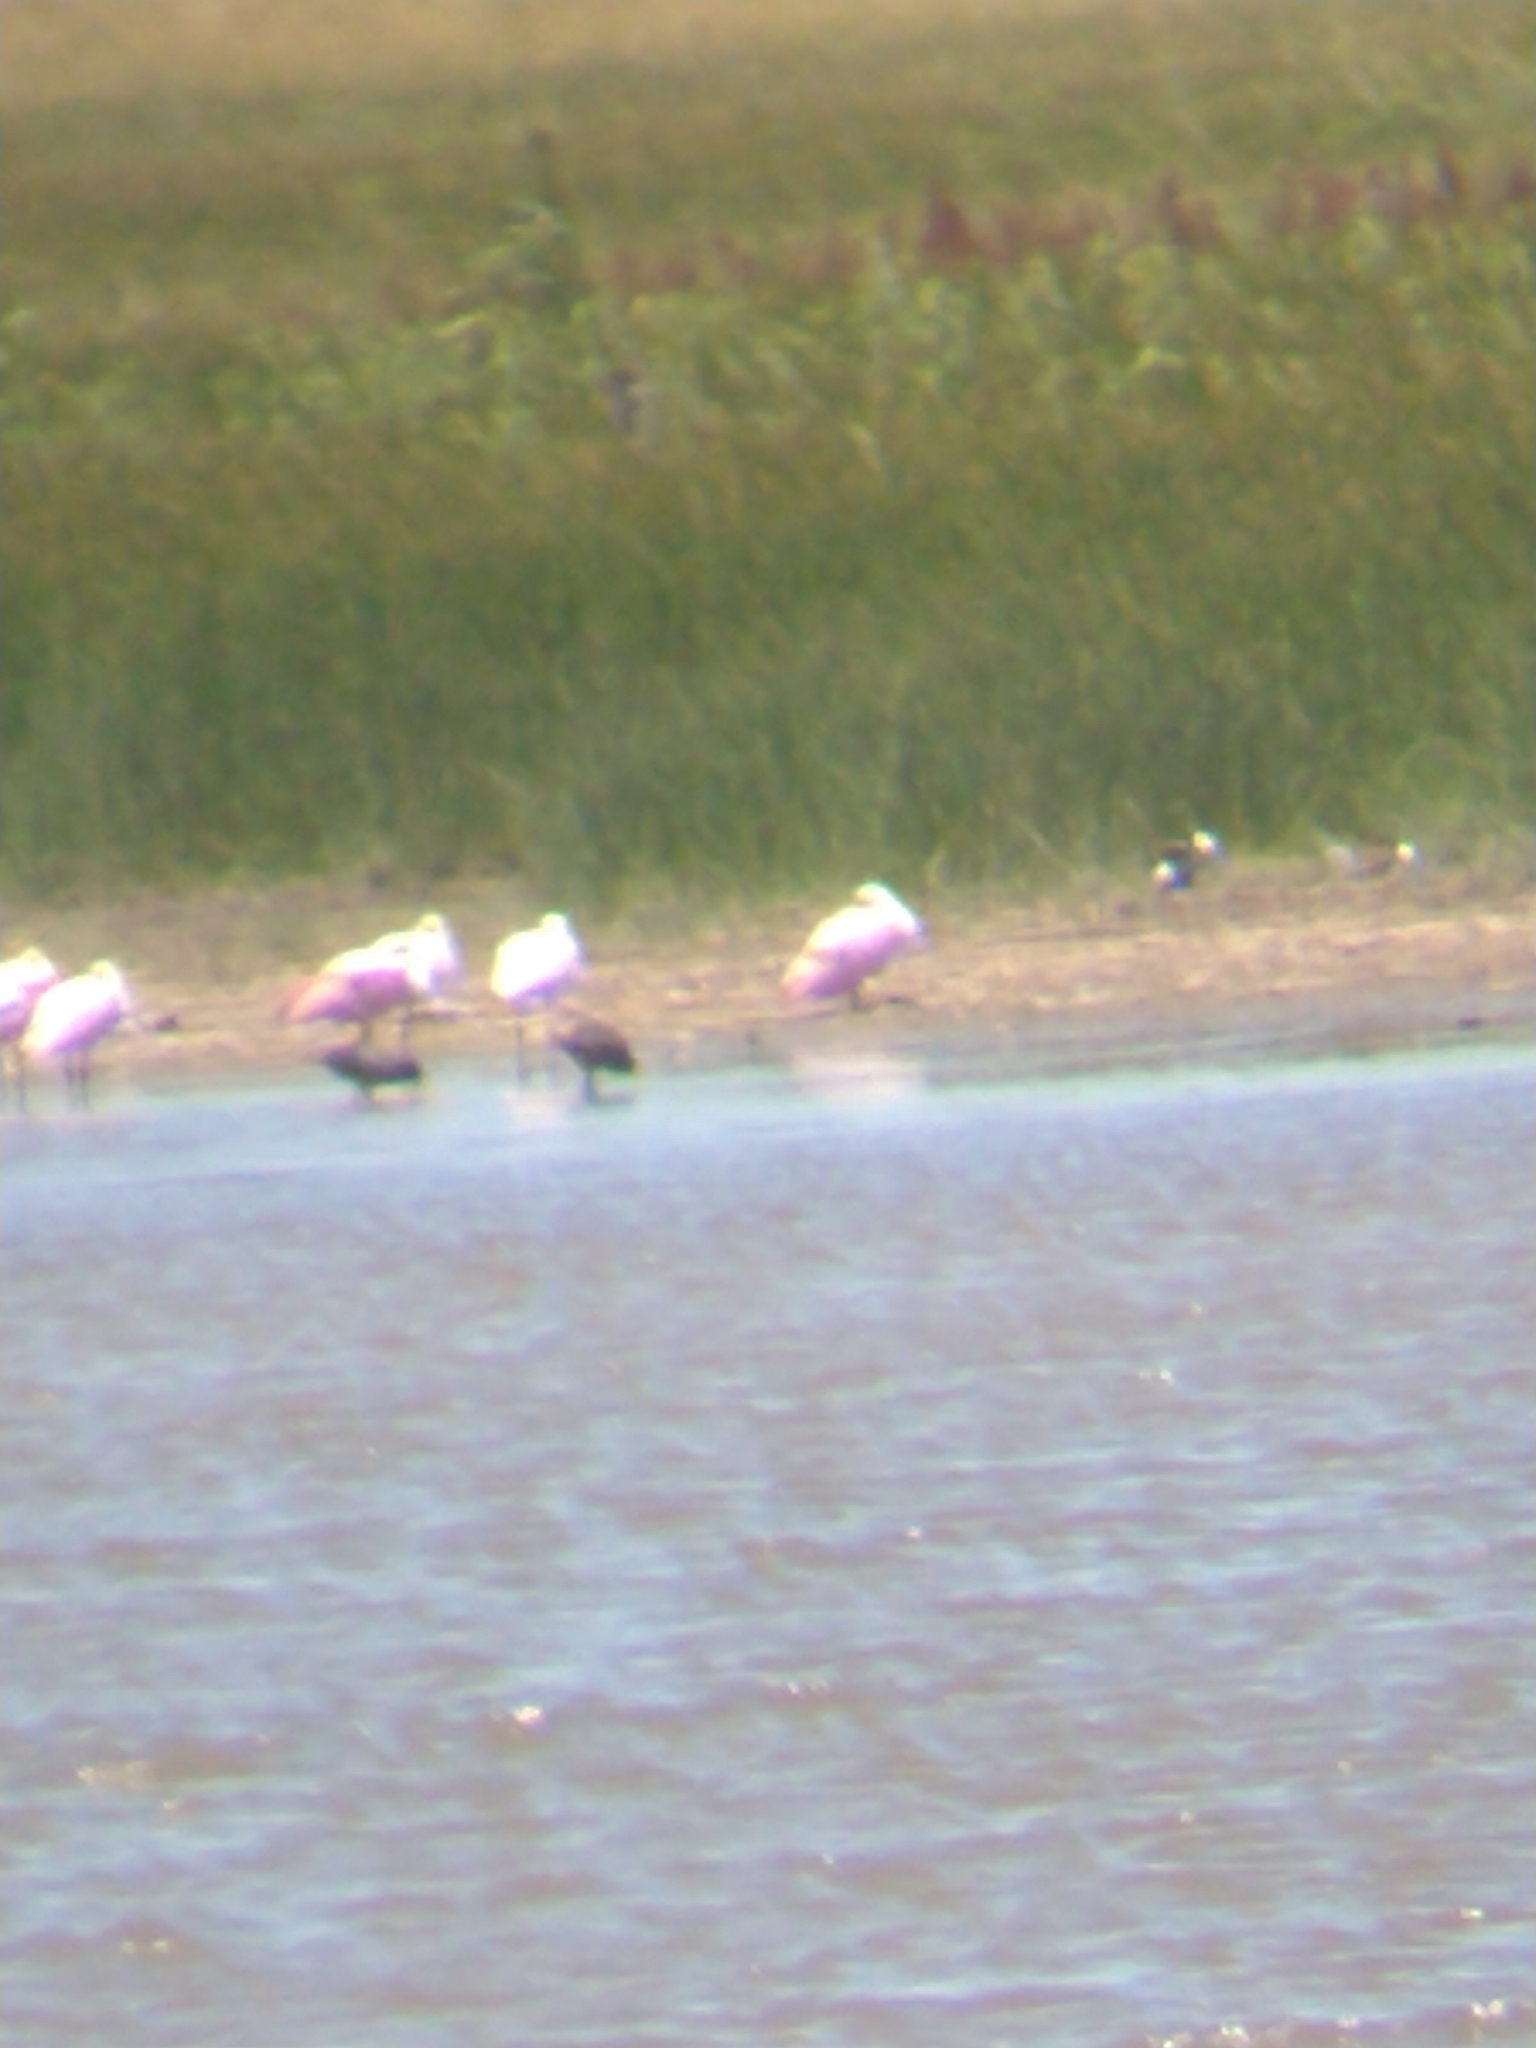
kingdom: Animalia
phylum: Chordata
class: Aves
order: Phoenicopteriformes
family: Phoenicopteridae
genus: Phoenicopterus
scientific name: Phoenicopterus chilensis
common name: Chilean flamingo
